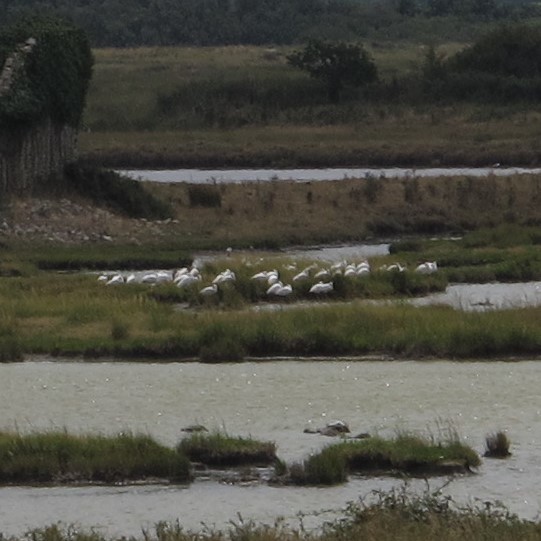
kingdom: Animalia
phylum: Chordata
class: Aves
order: Pelecaniformes
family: Threskiornithidae
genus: Platalea
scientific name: Platalea leucorodia
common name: Eurasian spoonbill
